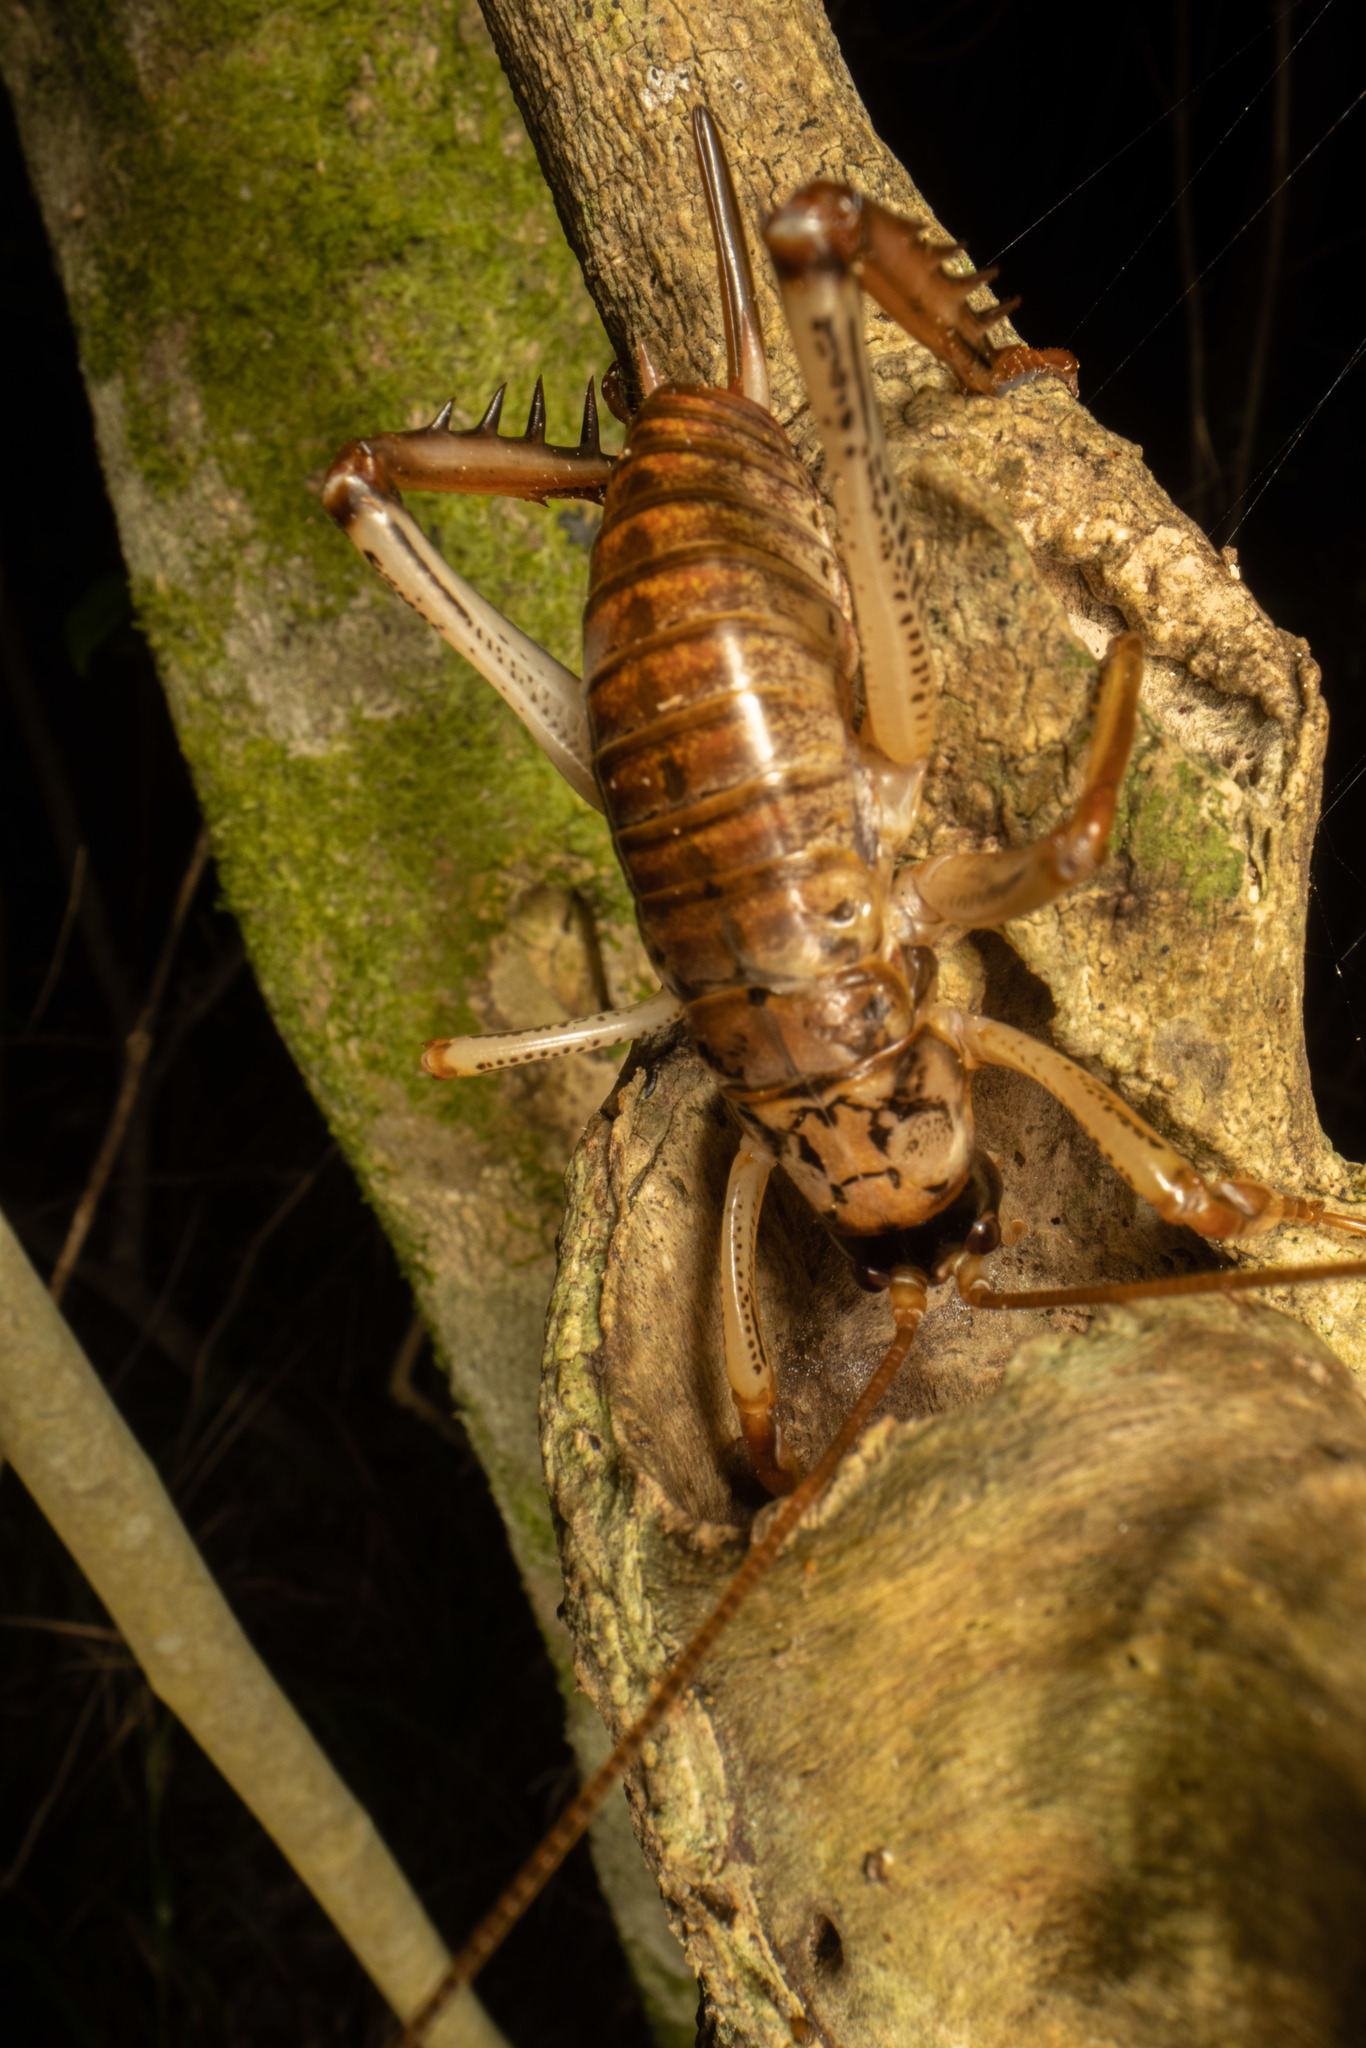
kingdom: Animalia
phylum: Arthropoda
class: Insecta
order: Orthoptera
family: Anostostomatidae
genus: Hemideina
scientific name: Hemideina thoracica
